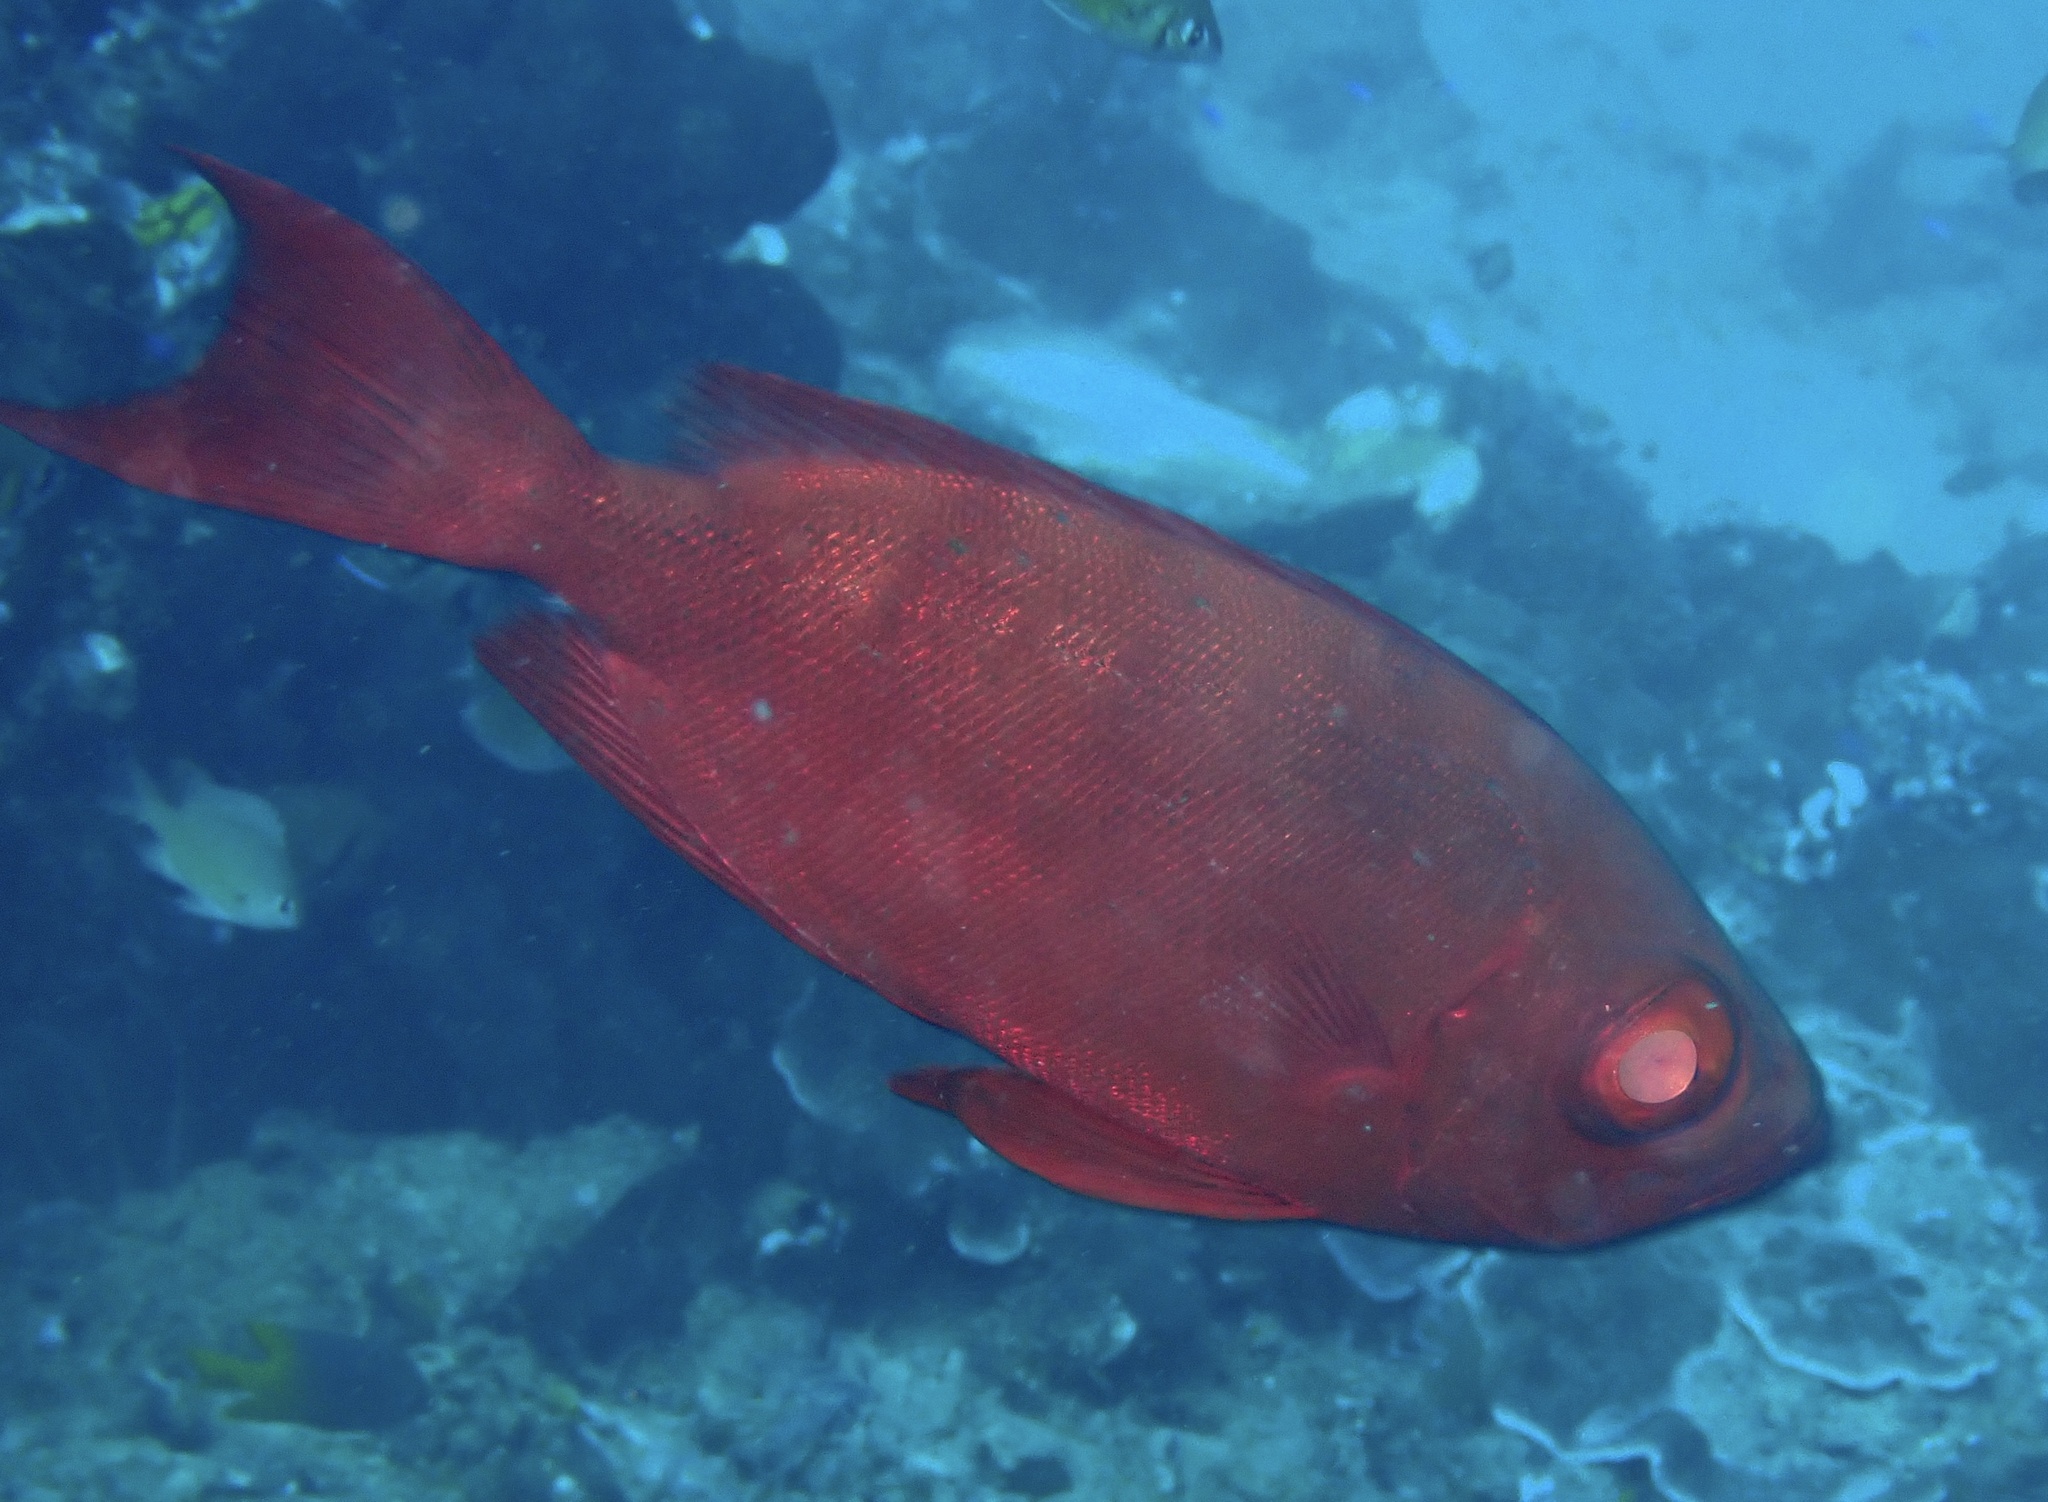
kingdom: Animalia
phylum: Chordata
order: Perciformes
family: Priacanthidae
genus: Priacanthus
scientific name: Priacanthus hamrur
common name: Moontail bullseye
